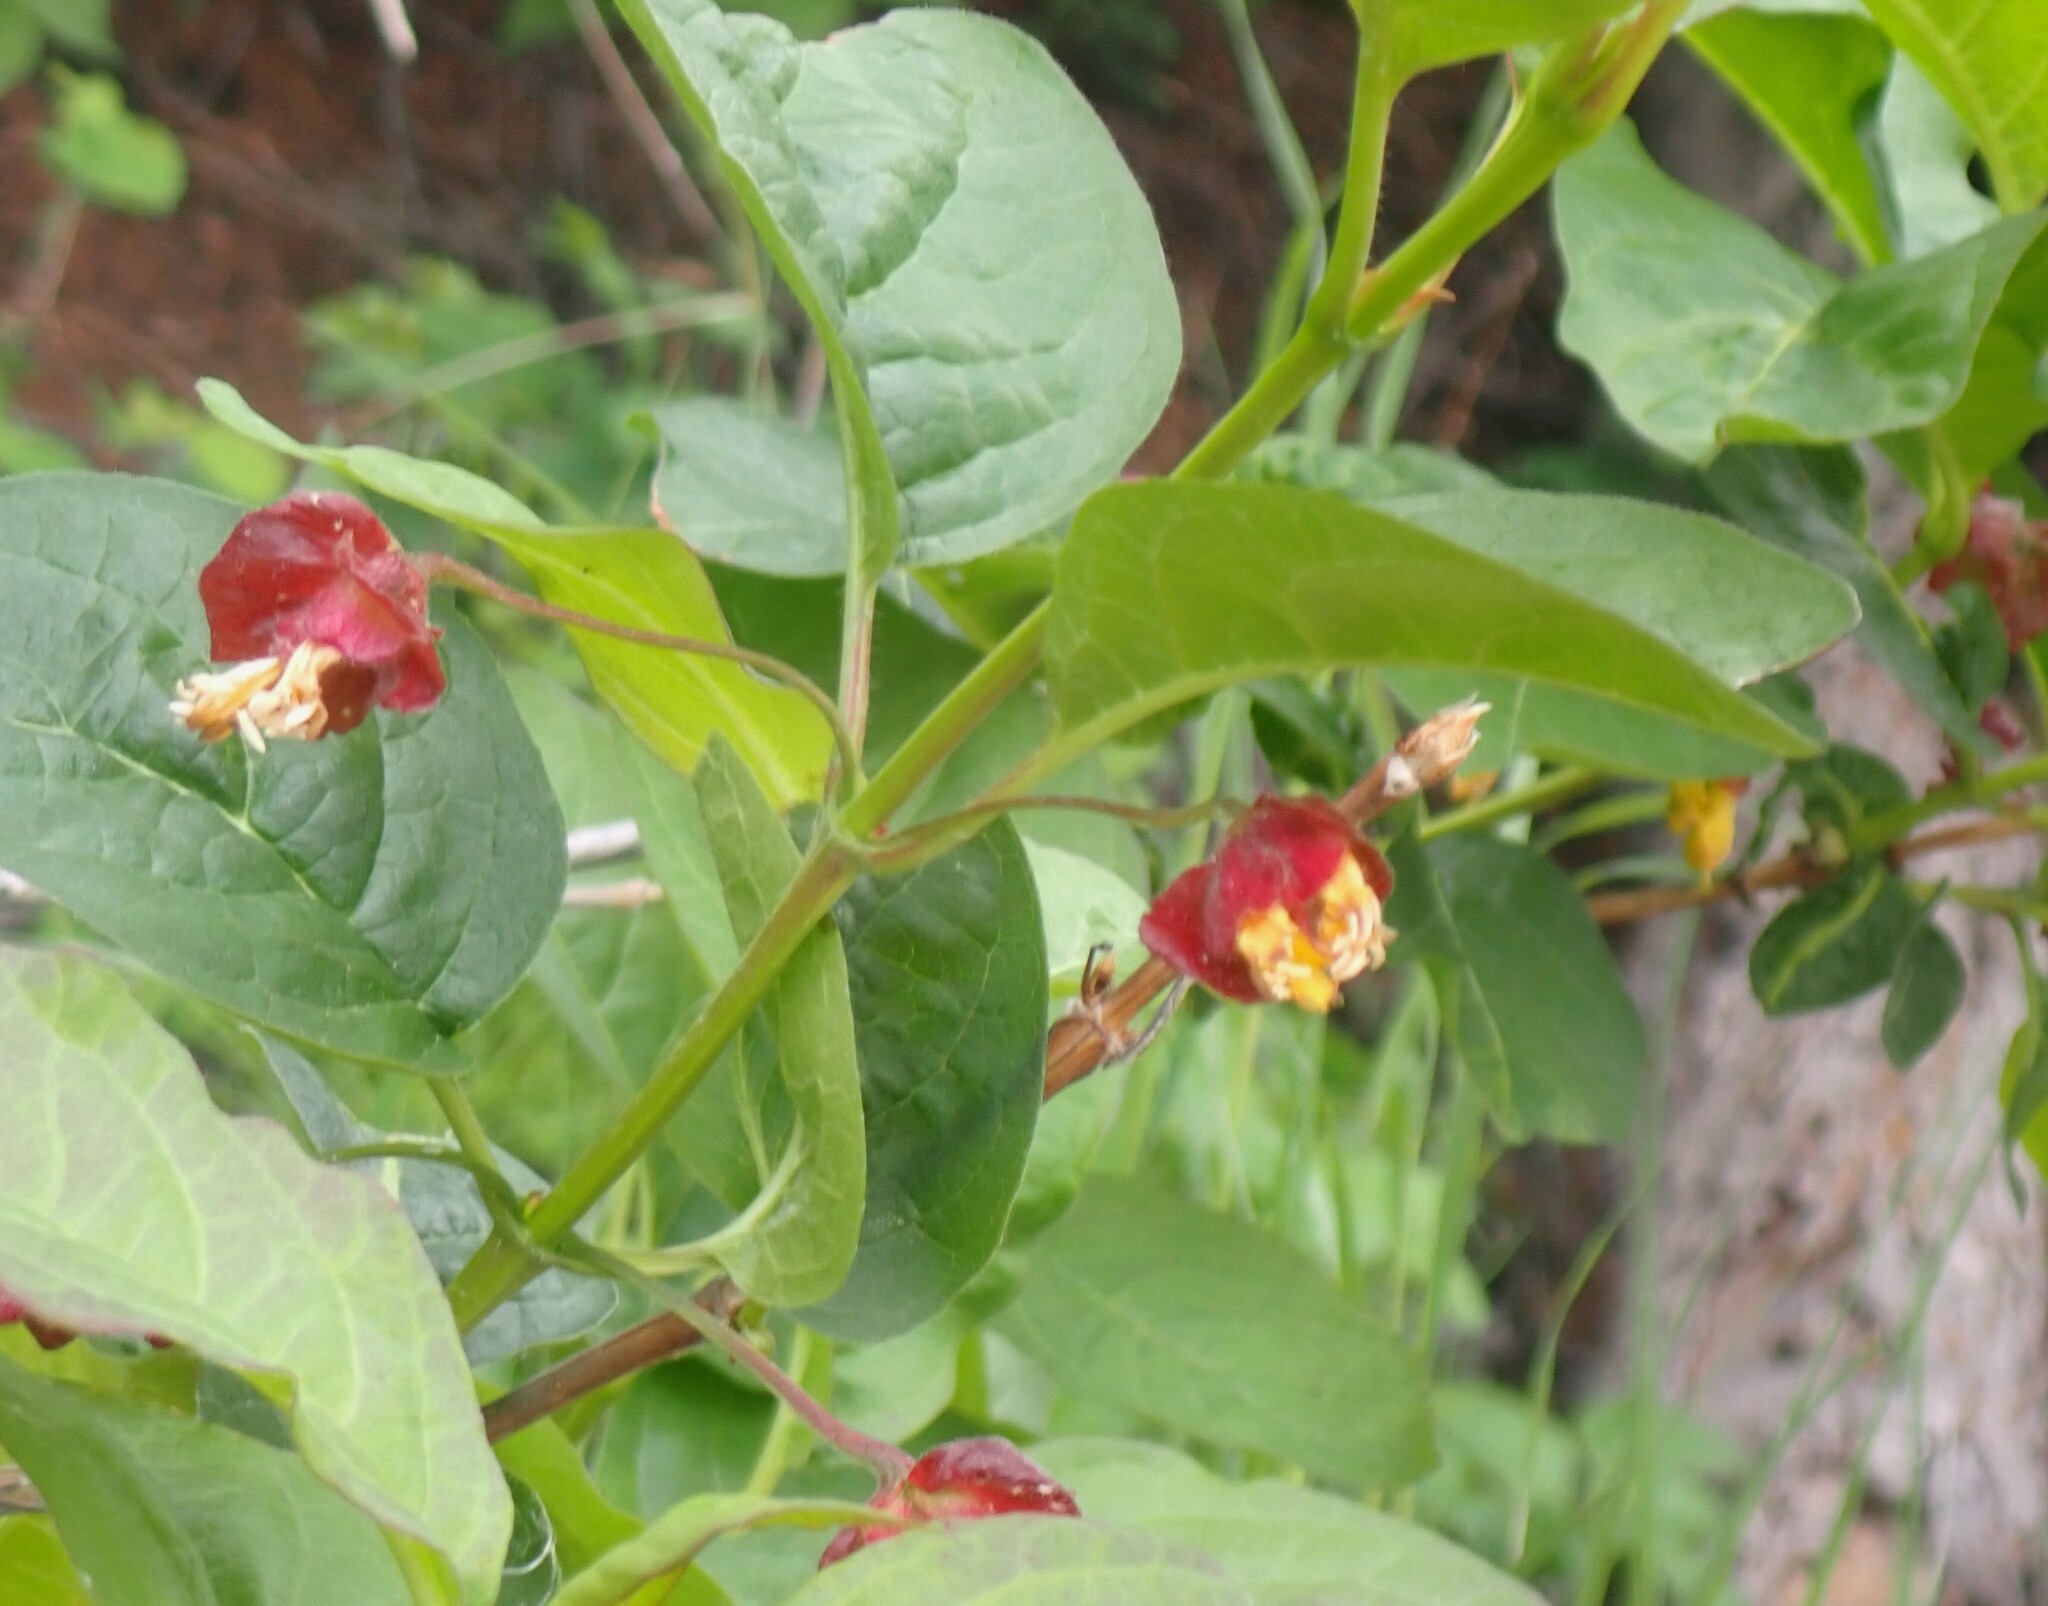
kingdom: Plantae
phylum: Tracheophyta
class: Magnoliopsida
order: Dipsacales
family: Caprifoliaceae
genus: Lonicera
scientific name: Lonicera involucrata
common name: Californian honeysuckle
